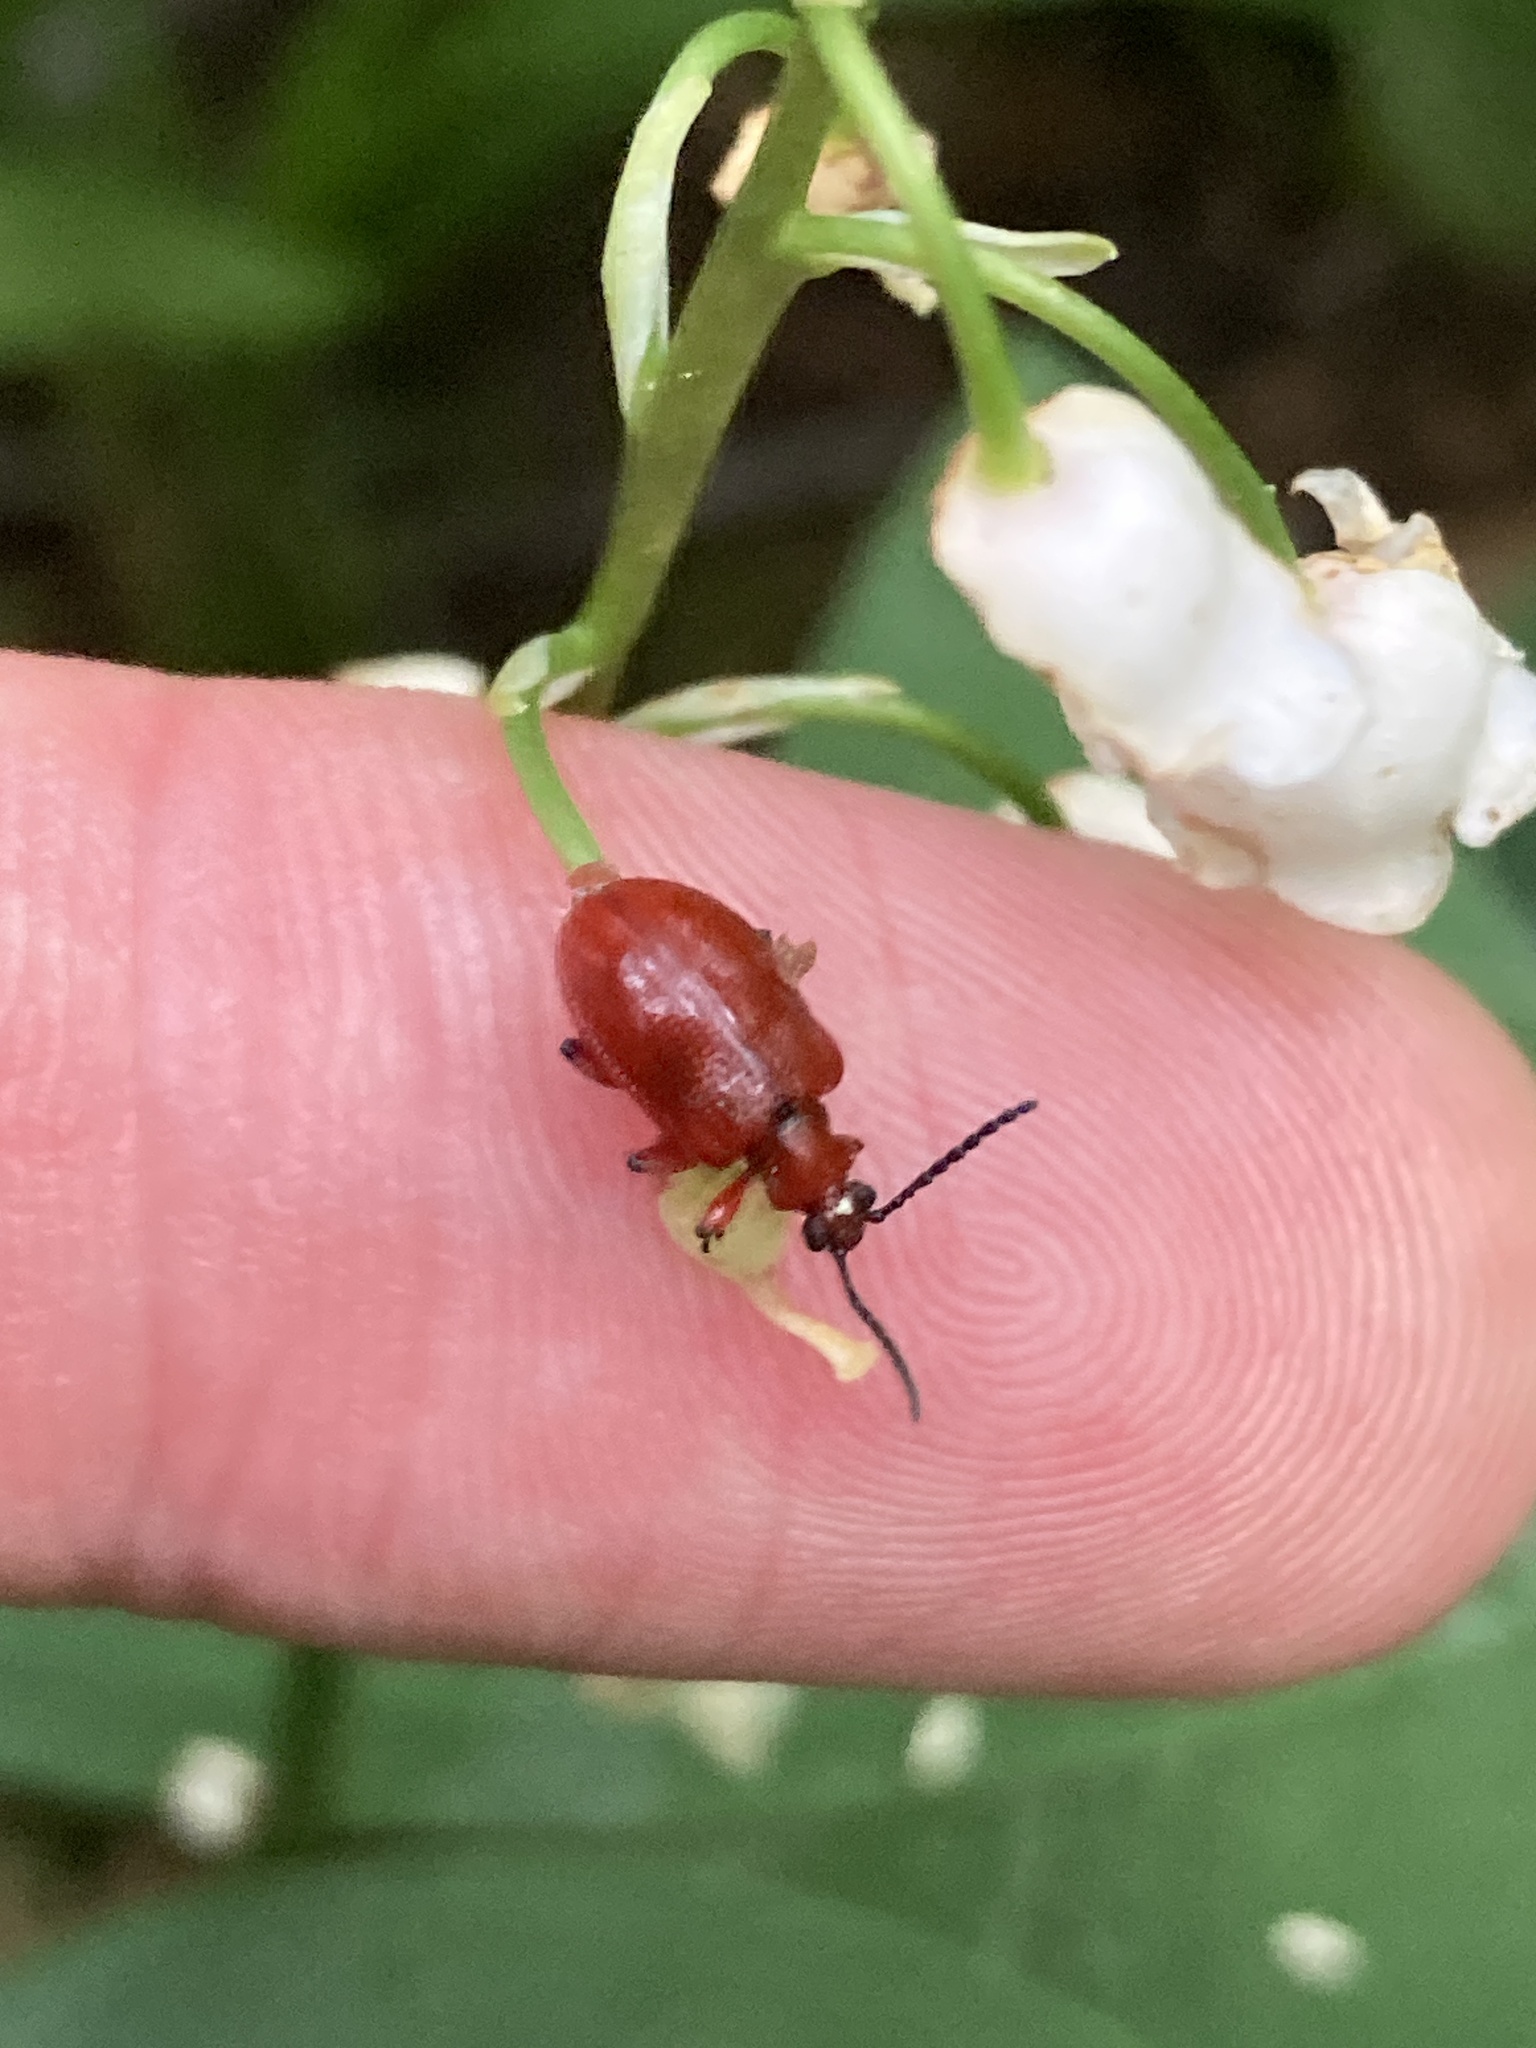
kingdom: Animalia
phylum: Arthropoda
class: Insecta
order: Coleoptera
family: Chrysomelidae
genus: Lilioceris
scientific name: Lilioceris merdigera
